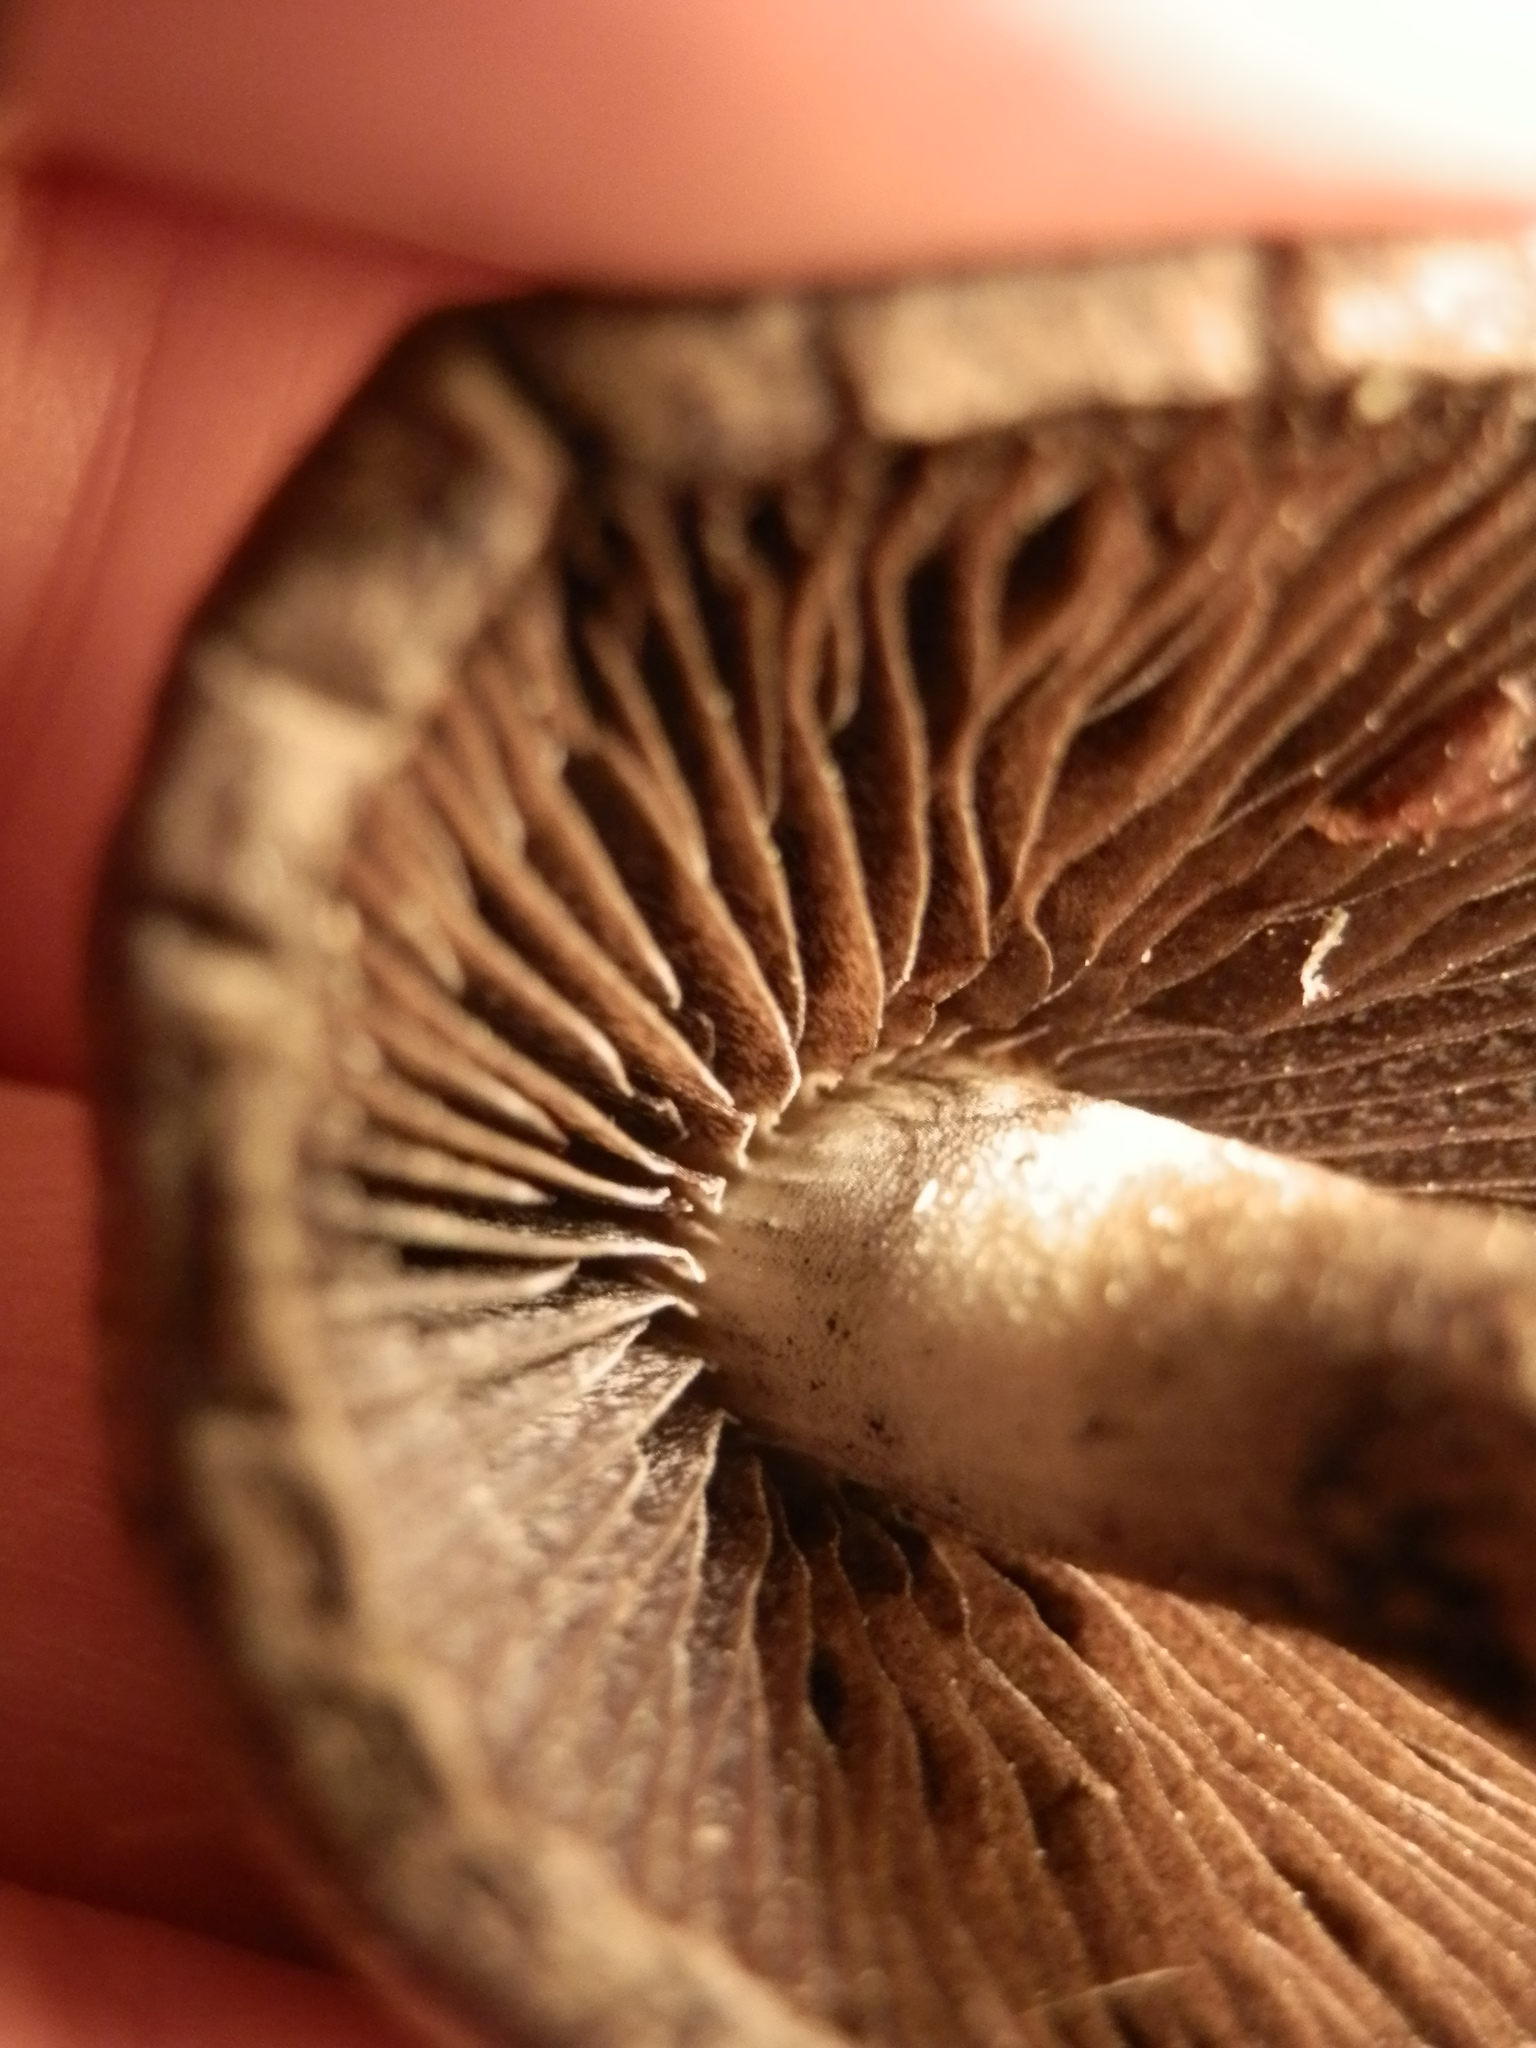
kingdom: Fungi
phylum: Basidiomycota
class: Agaricomycetes
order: Agaricales
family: Psathyrellaceae
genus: Lacrymaria
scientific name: Lacrymaria lacrymabunda
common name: Weeping widow
